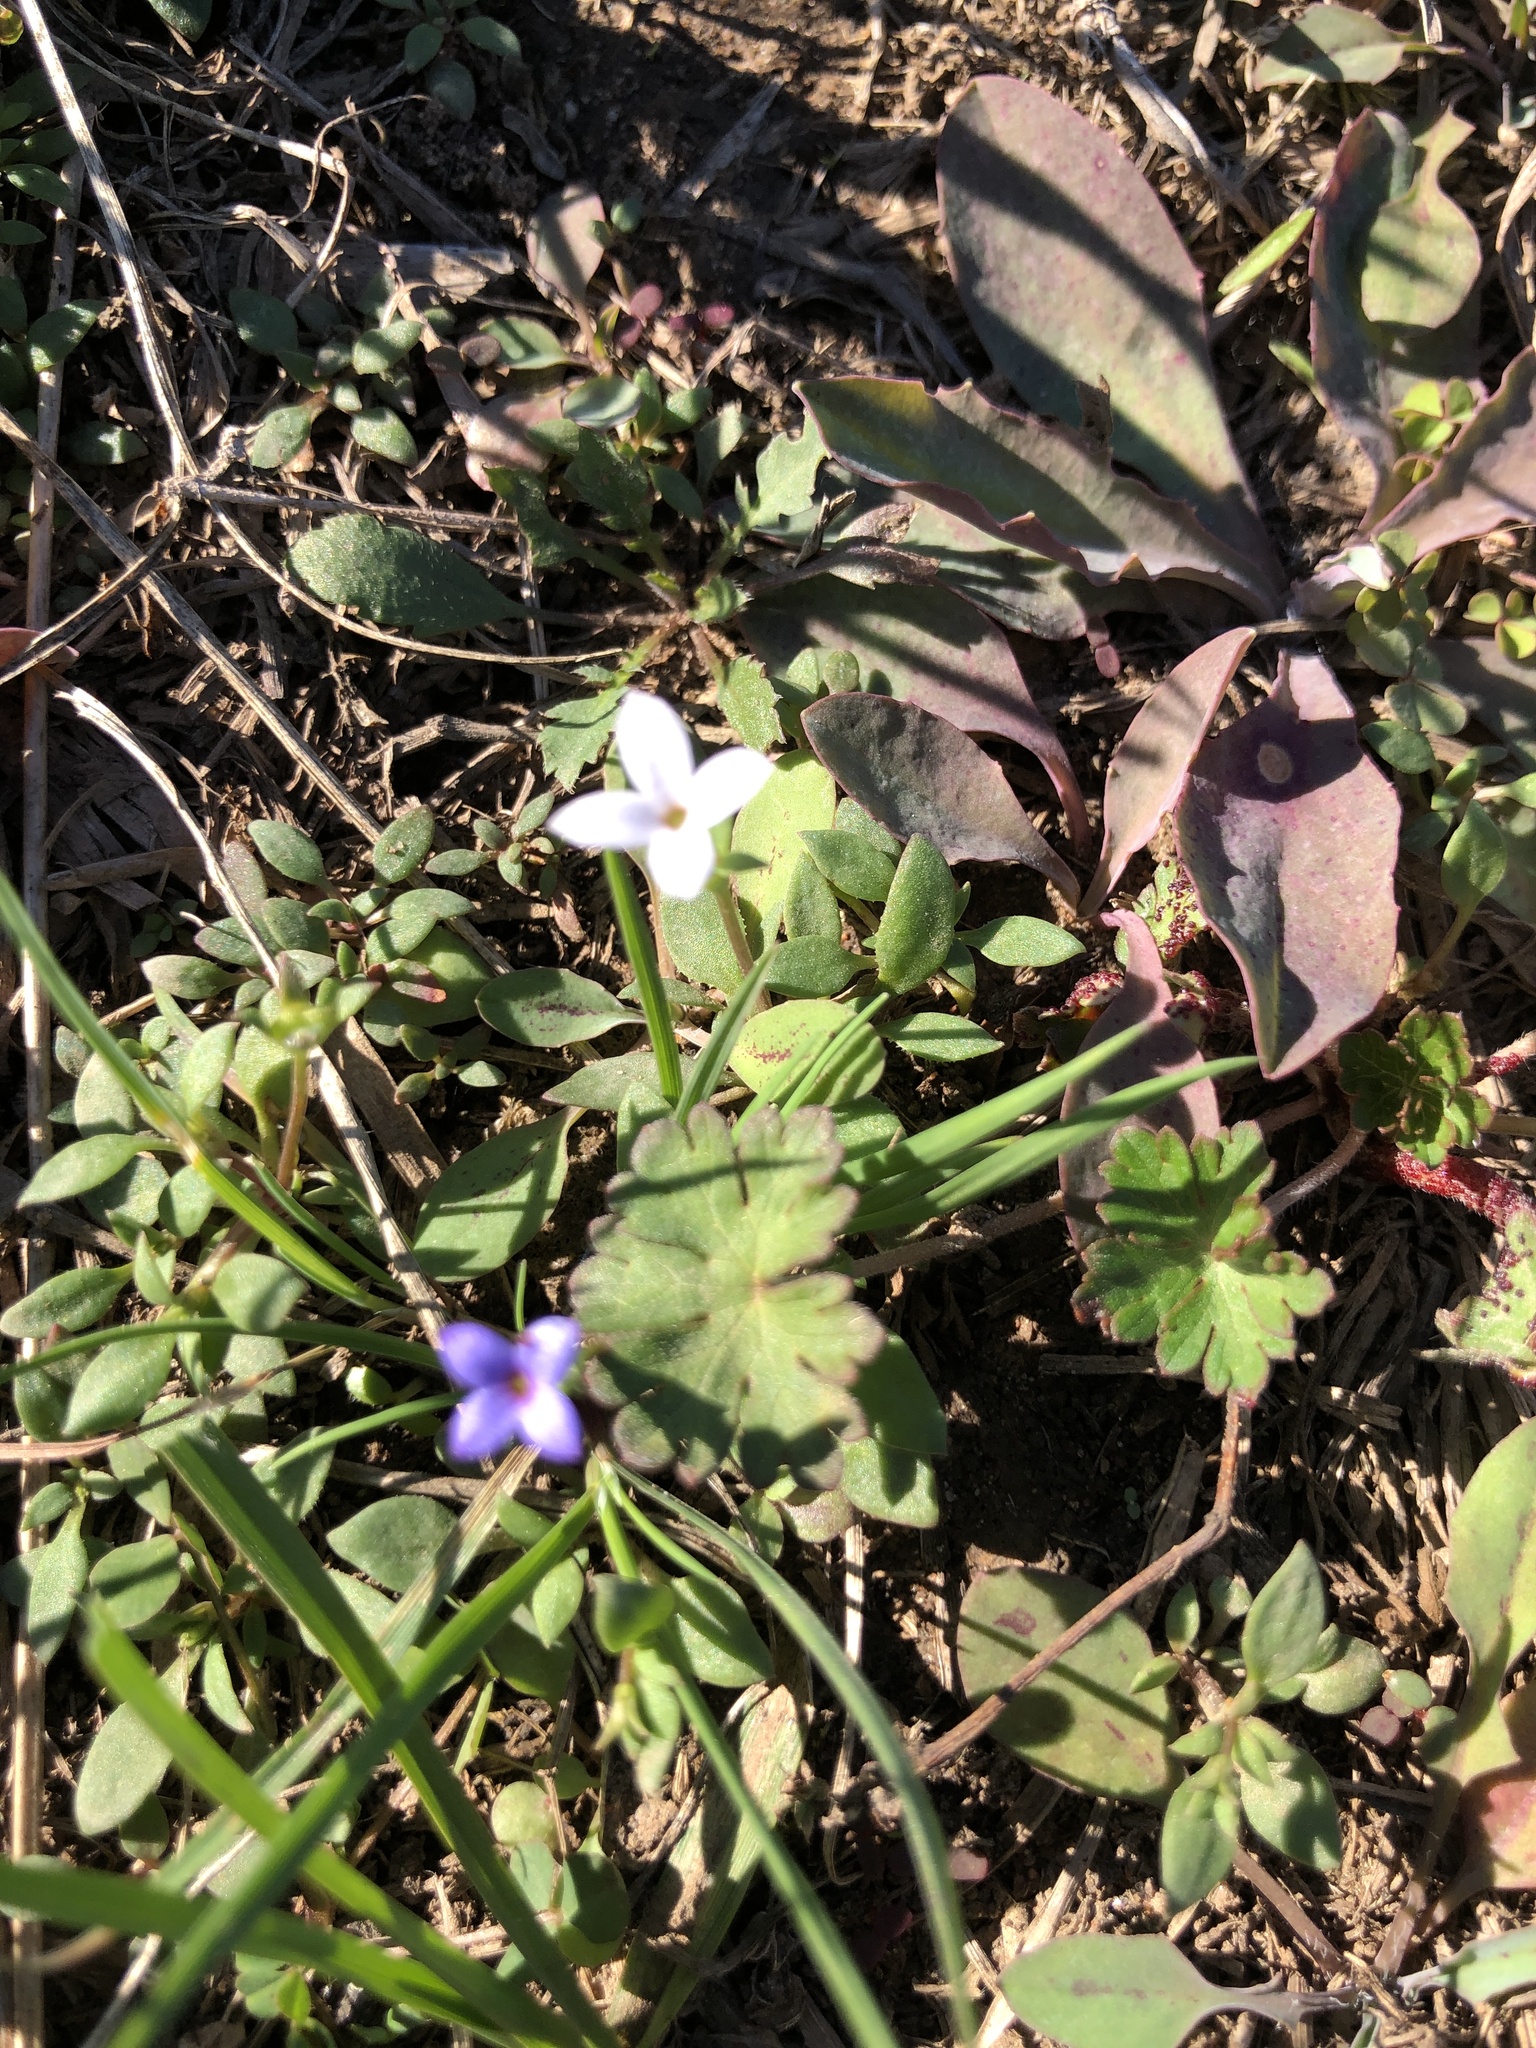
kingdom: Plantae
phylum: Tracheophyta
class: Magnoliopsida
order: Gentianales
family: Rubiaceae
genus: Houstonia
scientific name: Houstonia pusilla
